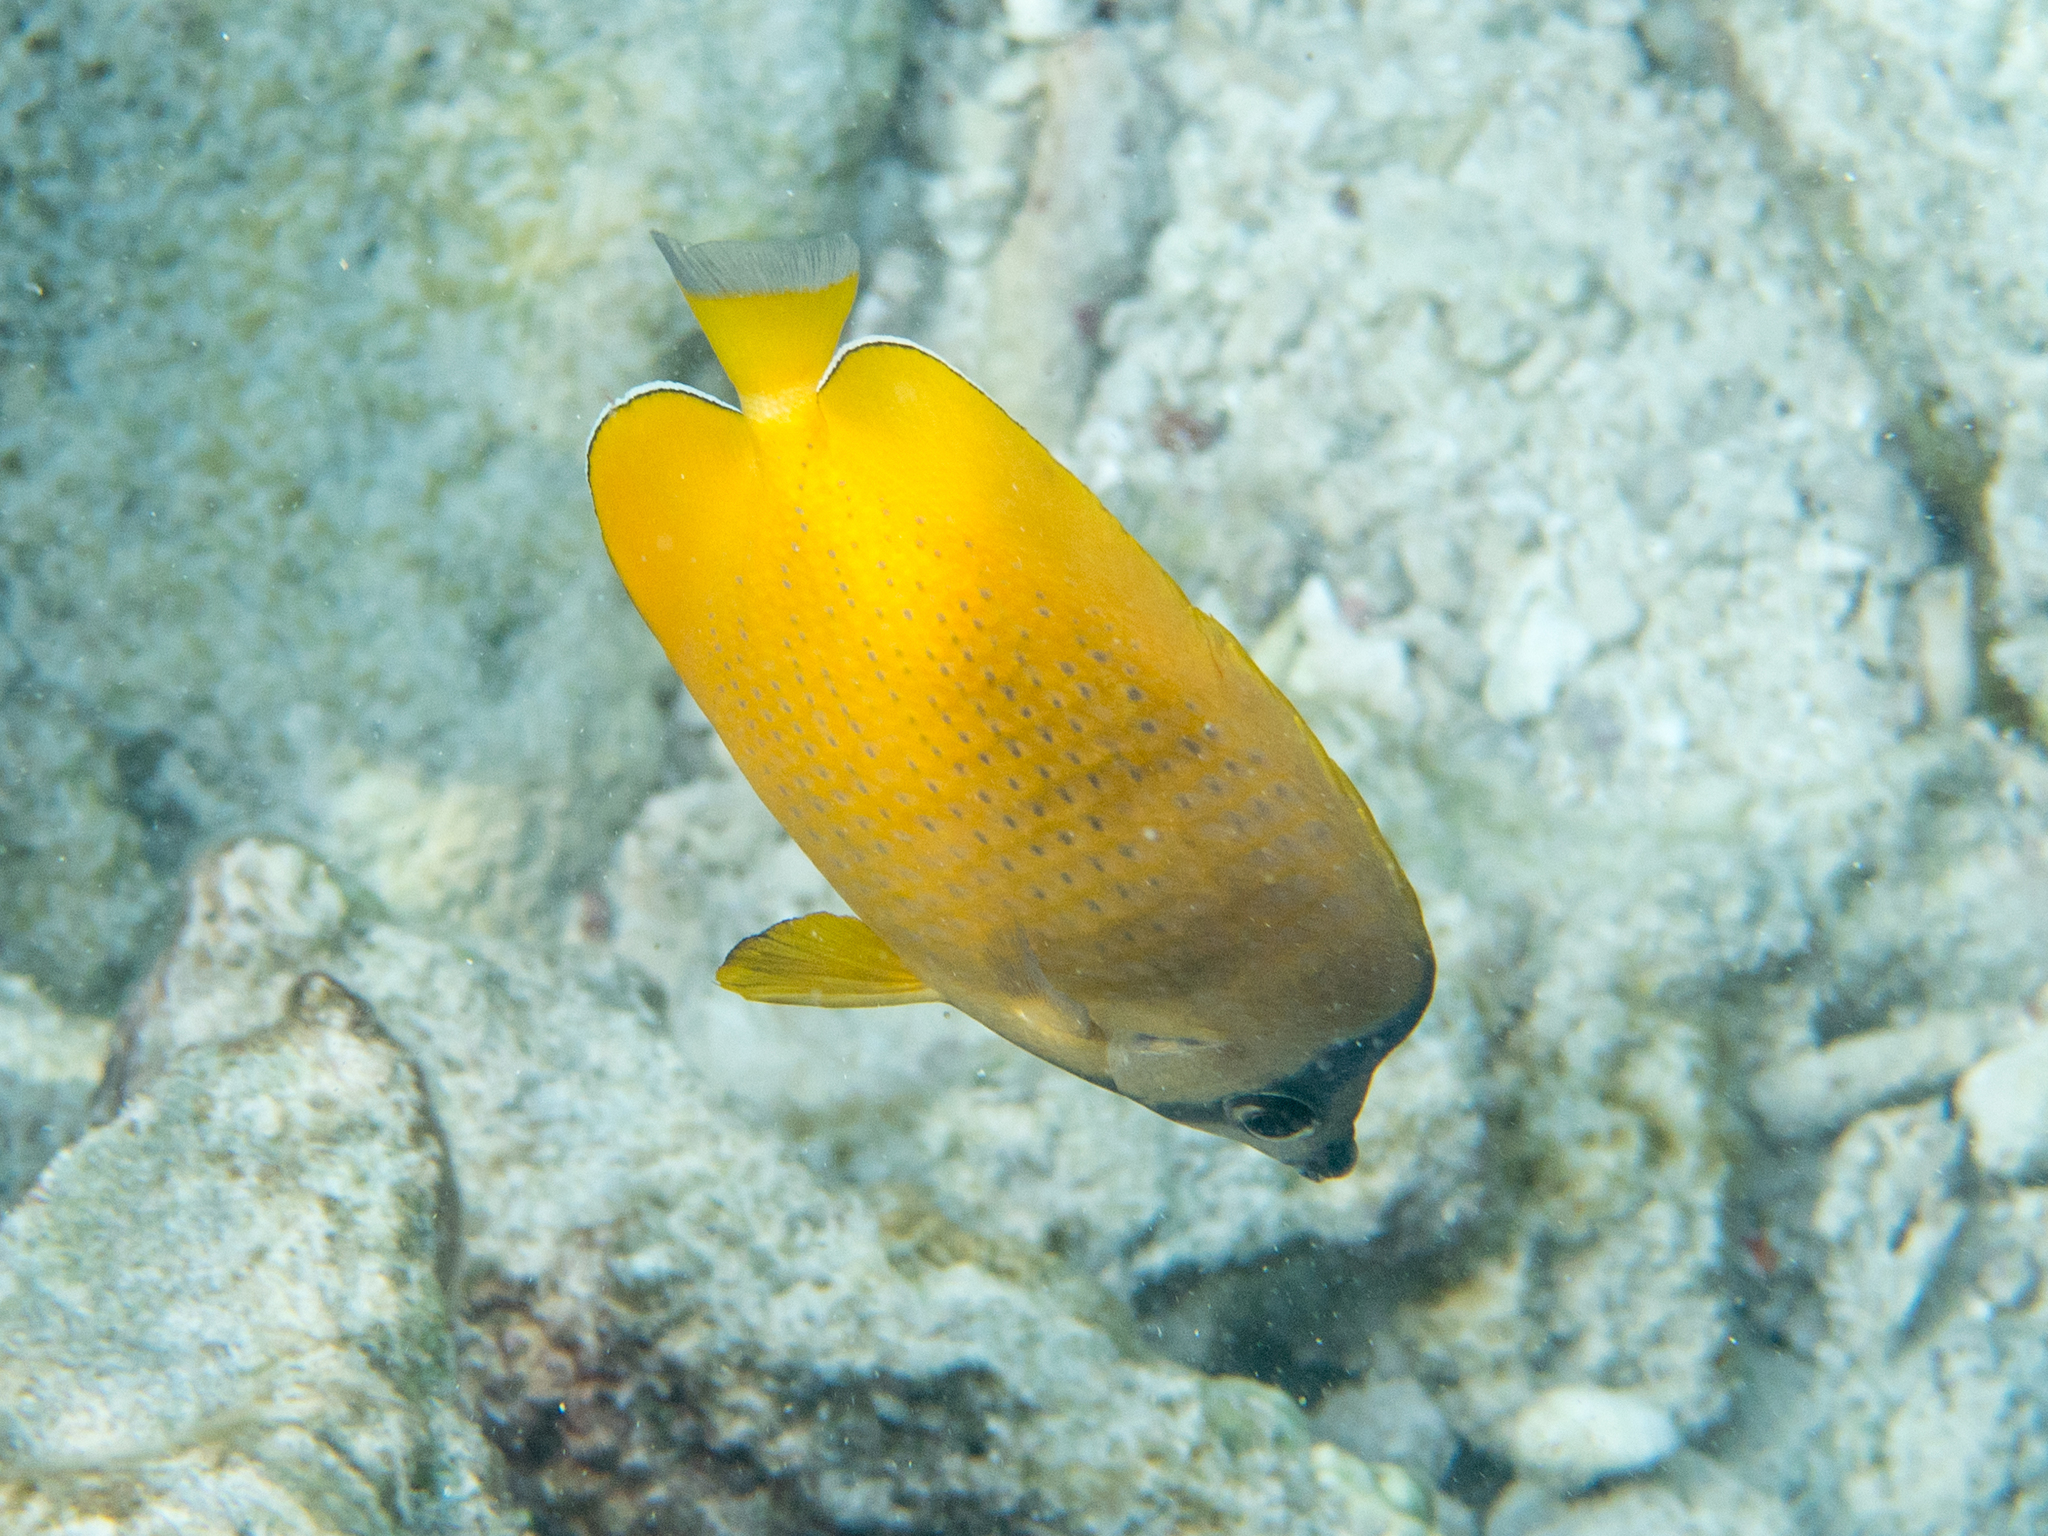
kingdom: Animalia
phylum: Chordata
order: Perciformes
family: Chaetodontidae
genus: Chaetodon
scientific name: Chaetodon kleinii
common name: Klein's butterflyfish
